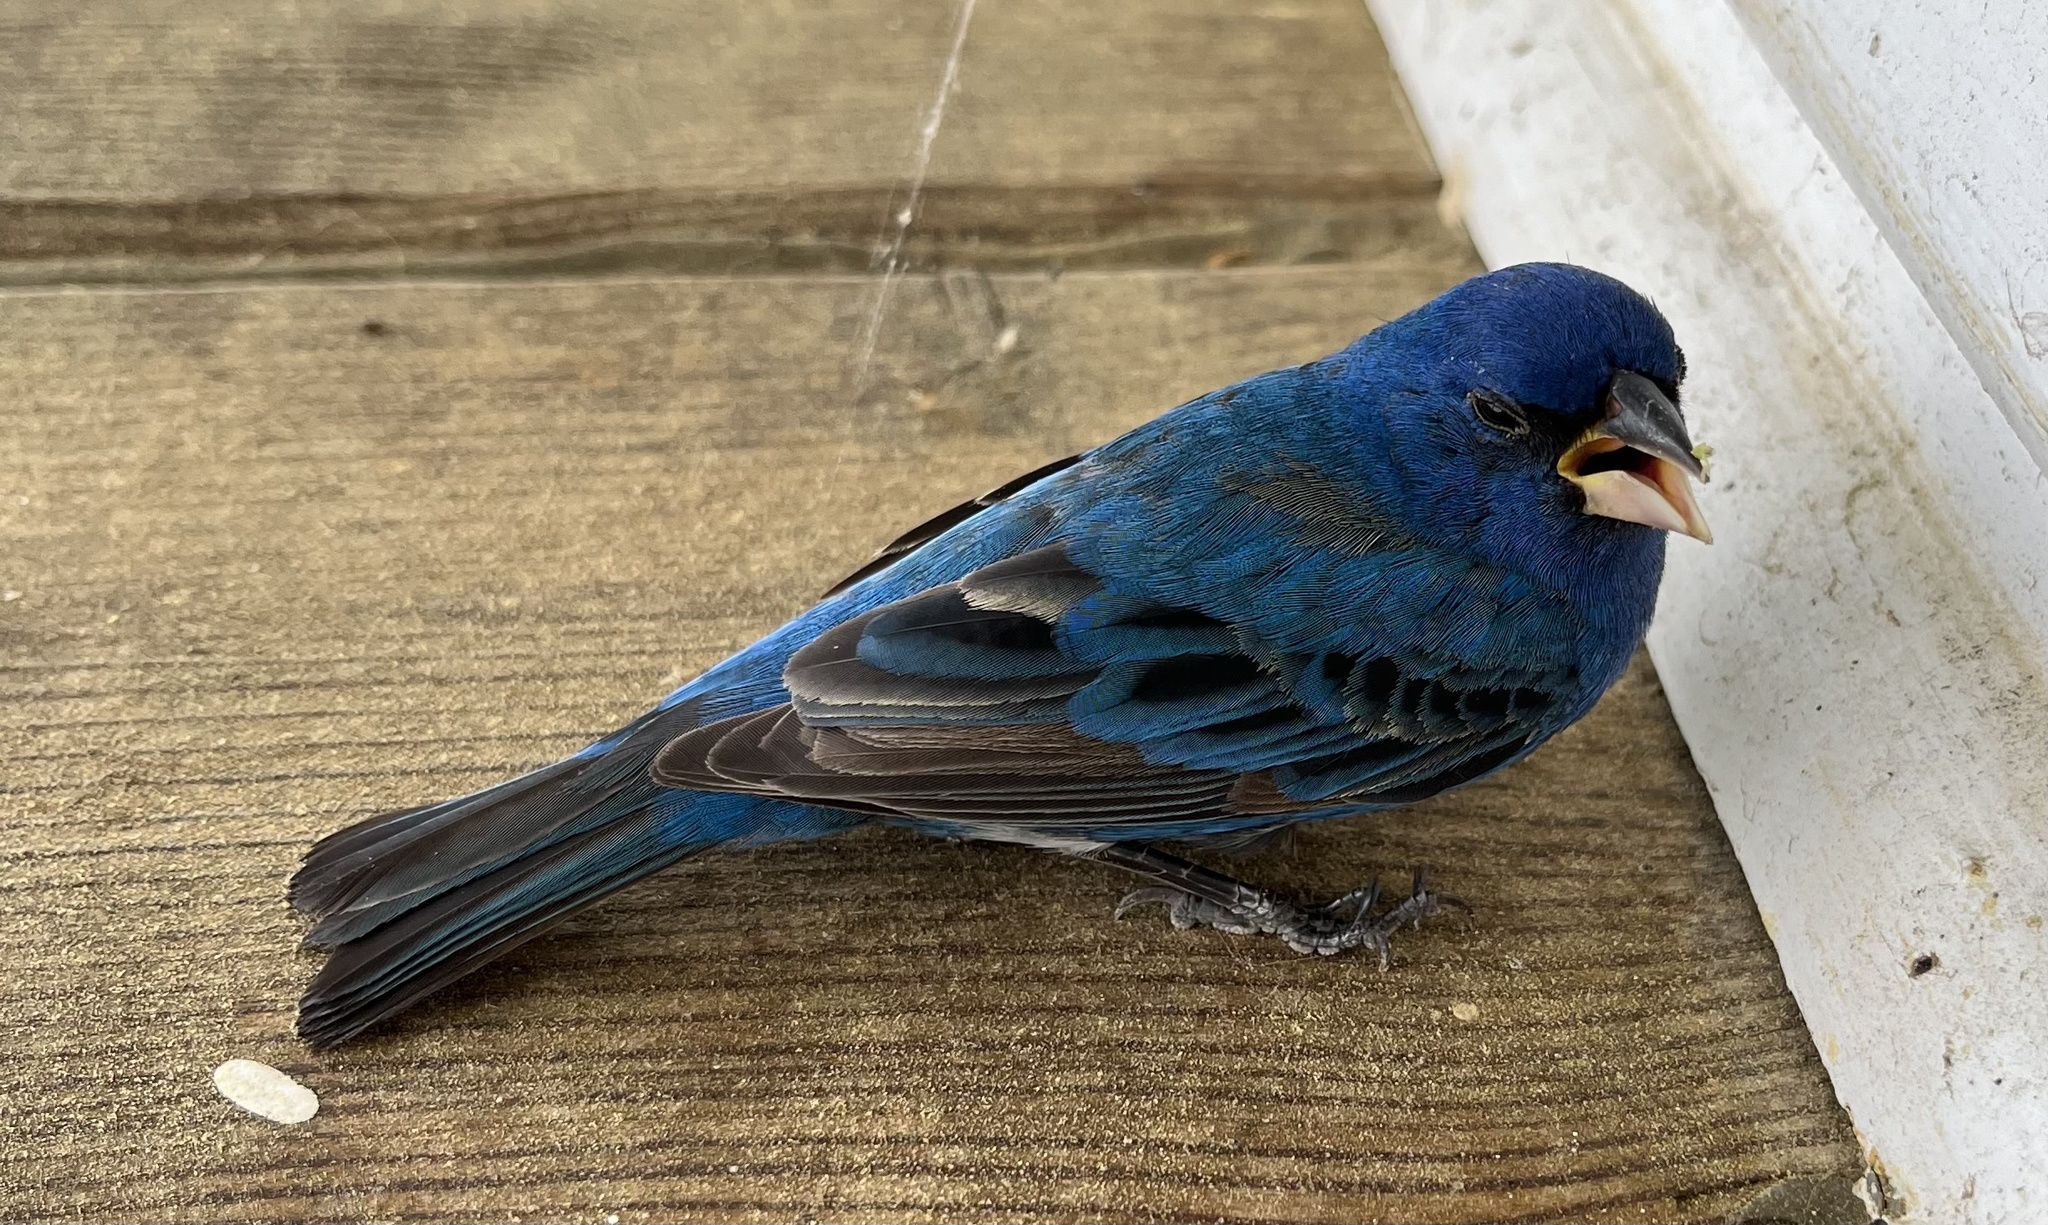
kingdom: Animalia
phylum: Chordata
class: Aves
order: Passeriformes
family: Cardinalidae
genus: Passerina
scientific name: Passerina cyanea
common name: Indigo bunting
